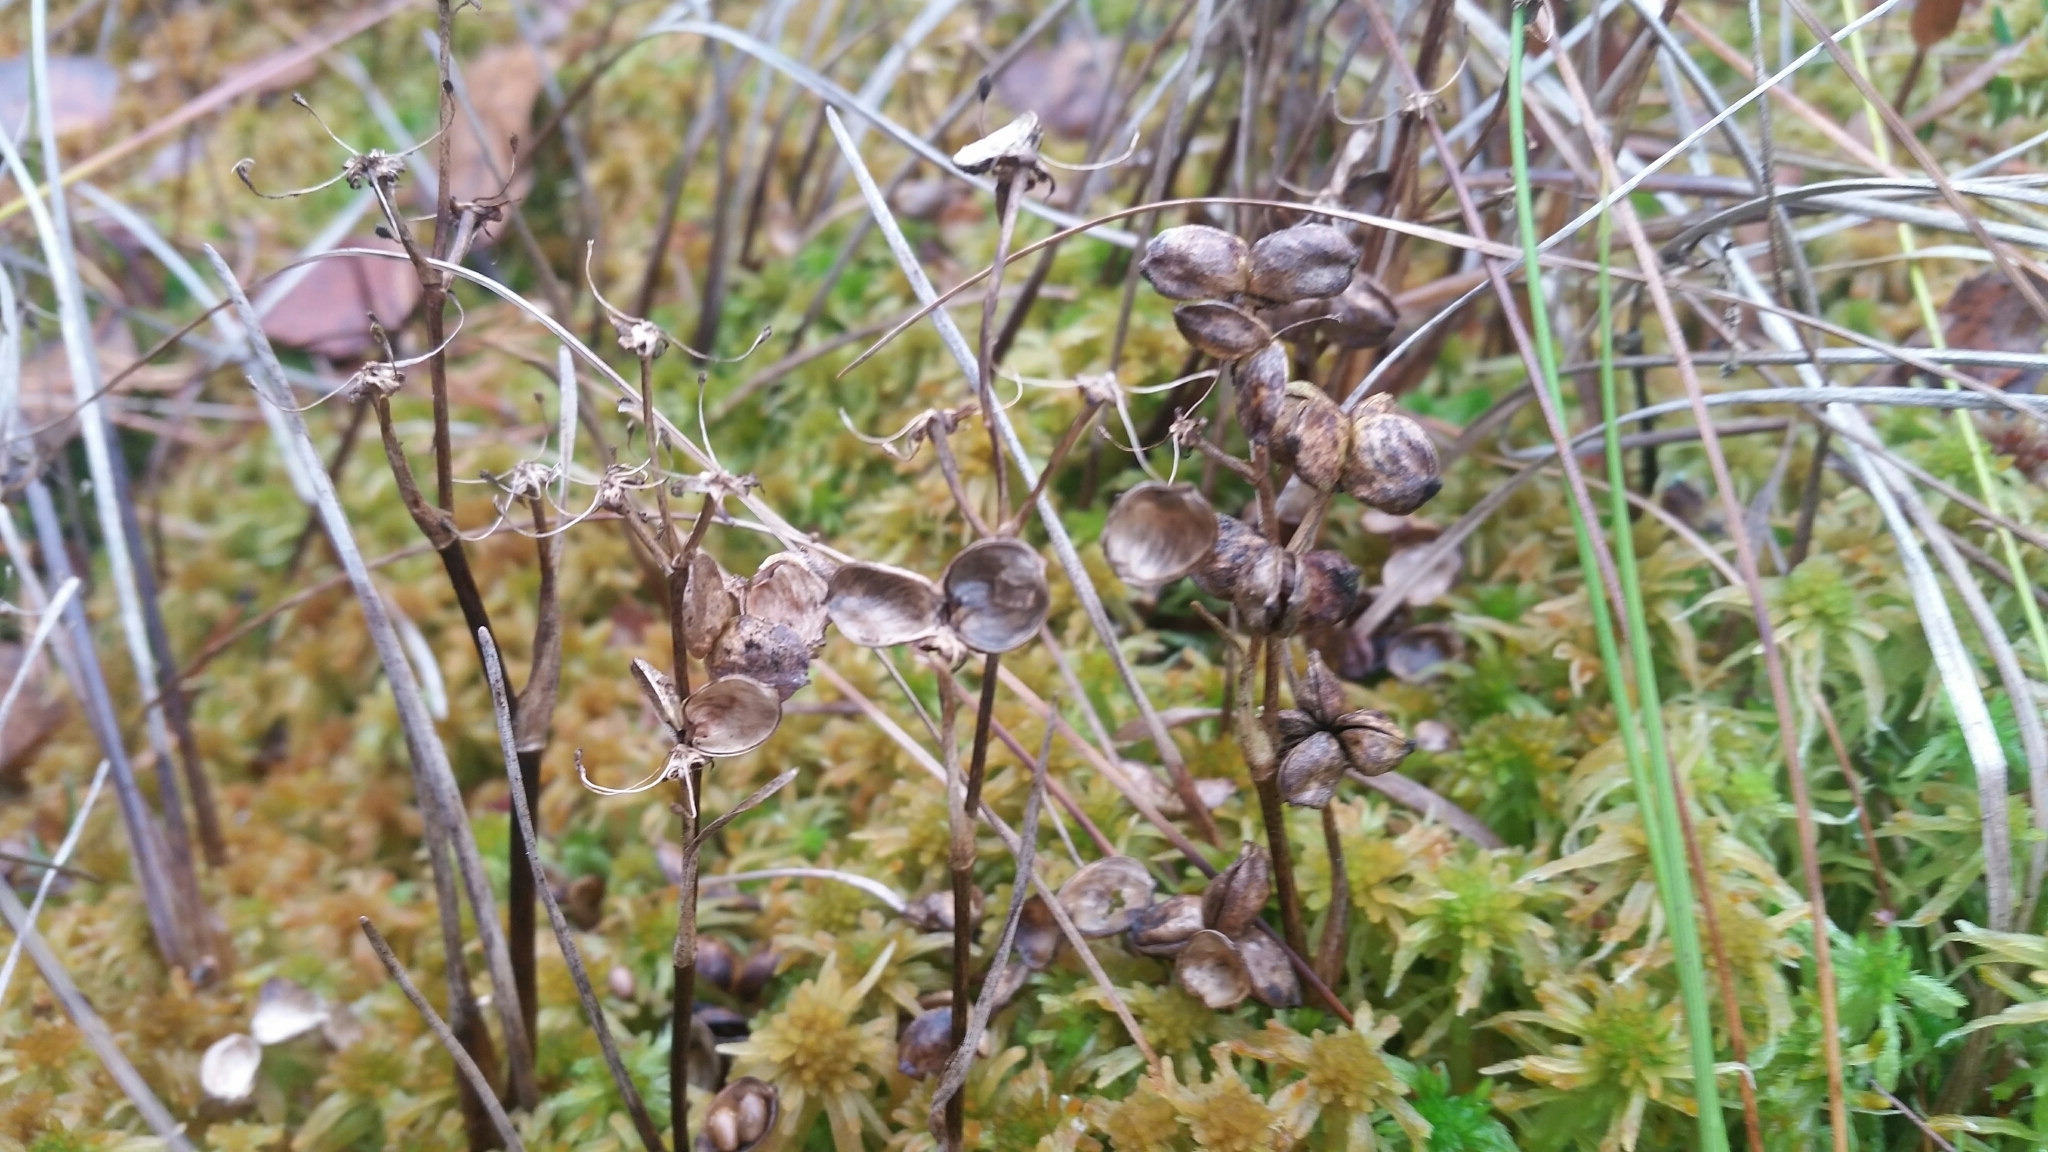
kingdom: Plantae
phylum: Tracheophyta
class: Liliopsida
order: Alismatales
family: Scheuchzeriaceae
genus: Scheuchzeria
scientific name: Scheuchzeria palustris
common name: Rannoch-rush
